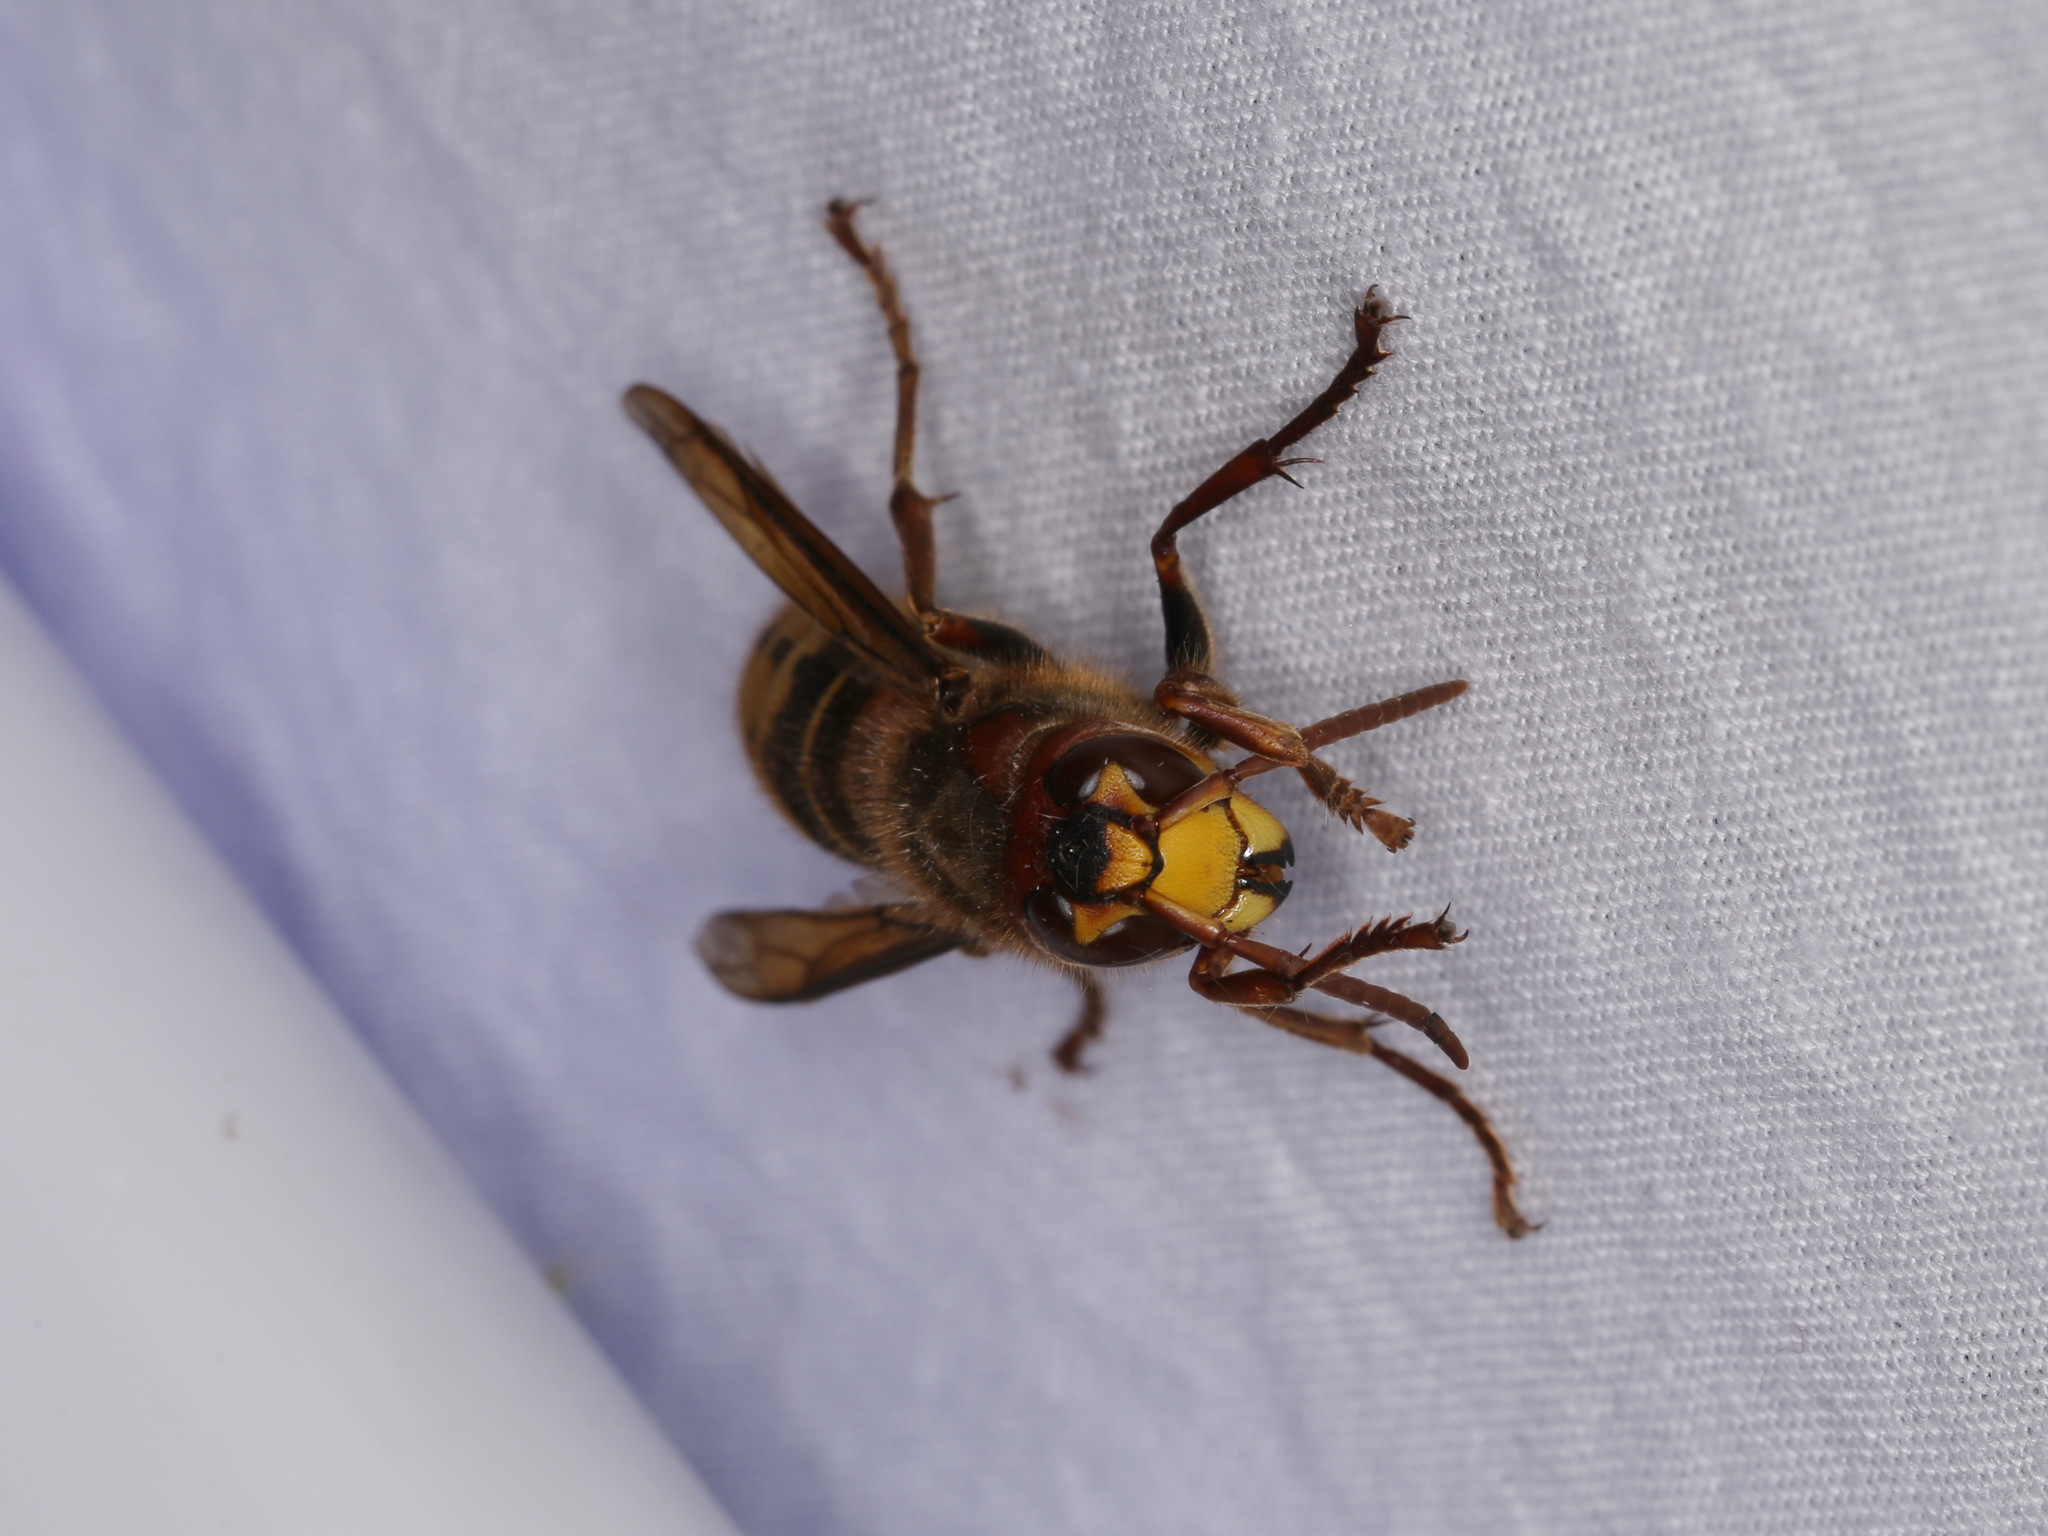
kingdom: Animalia
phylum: Arthropoda
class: Insecta
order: Hymenoptera
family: Vespidae
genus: Vespa
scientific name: Vespa crabro
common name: Hornet
